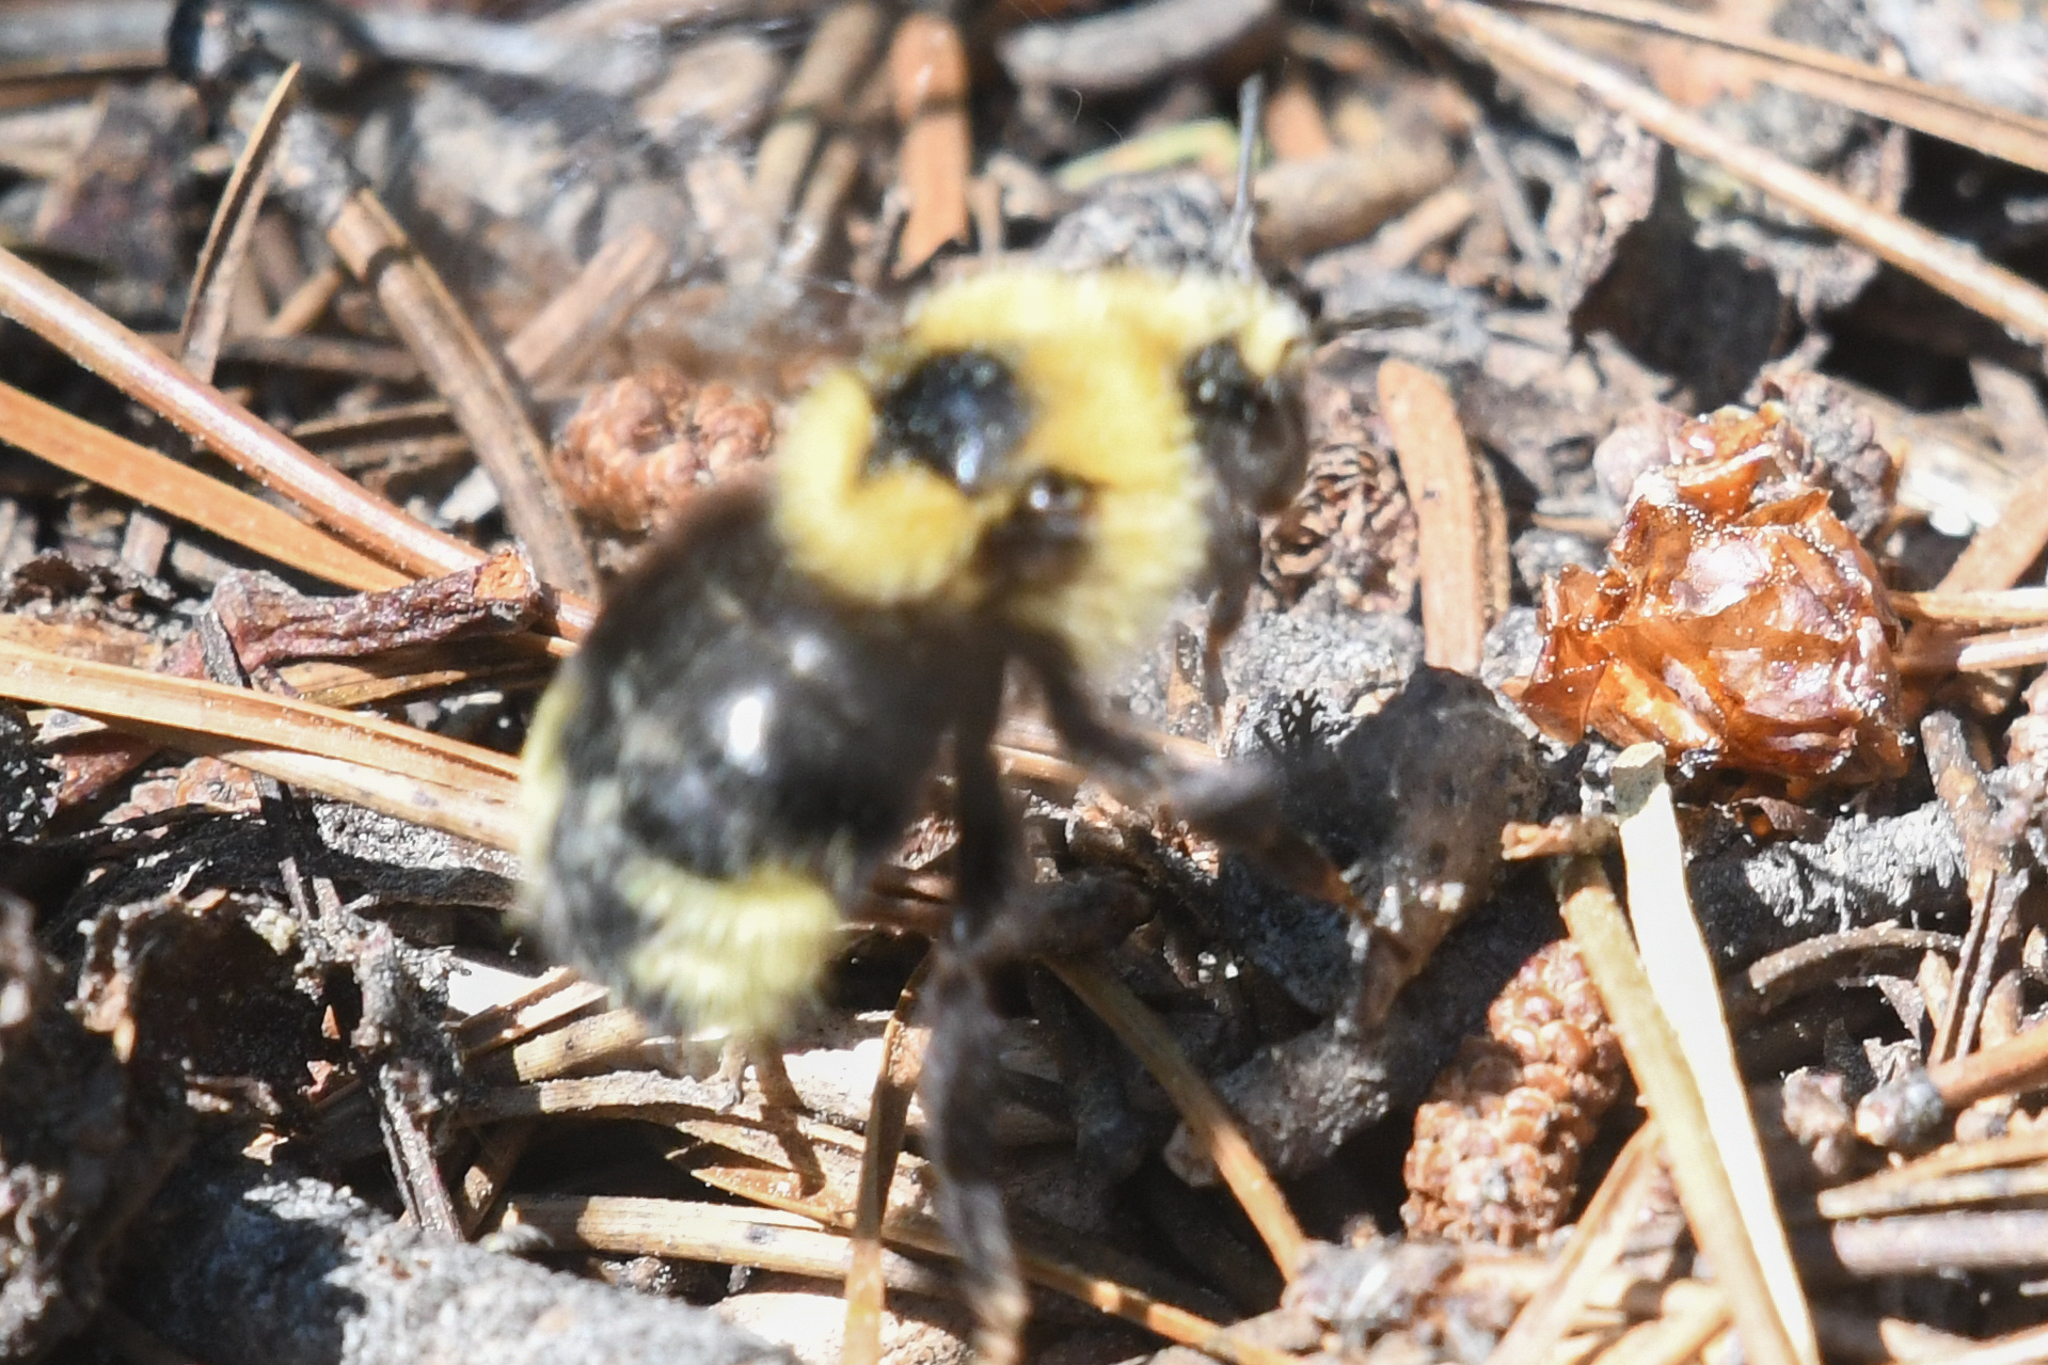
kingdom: Animalia
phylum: Arthropoda
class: Insecta
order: Hymenoptera
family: Apidae
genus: Bombus
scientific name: Bombus insularis
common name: Indiscriminate cuckoo bumble bee
